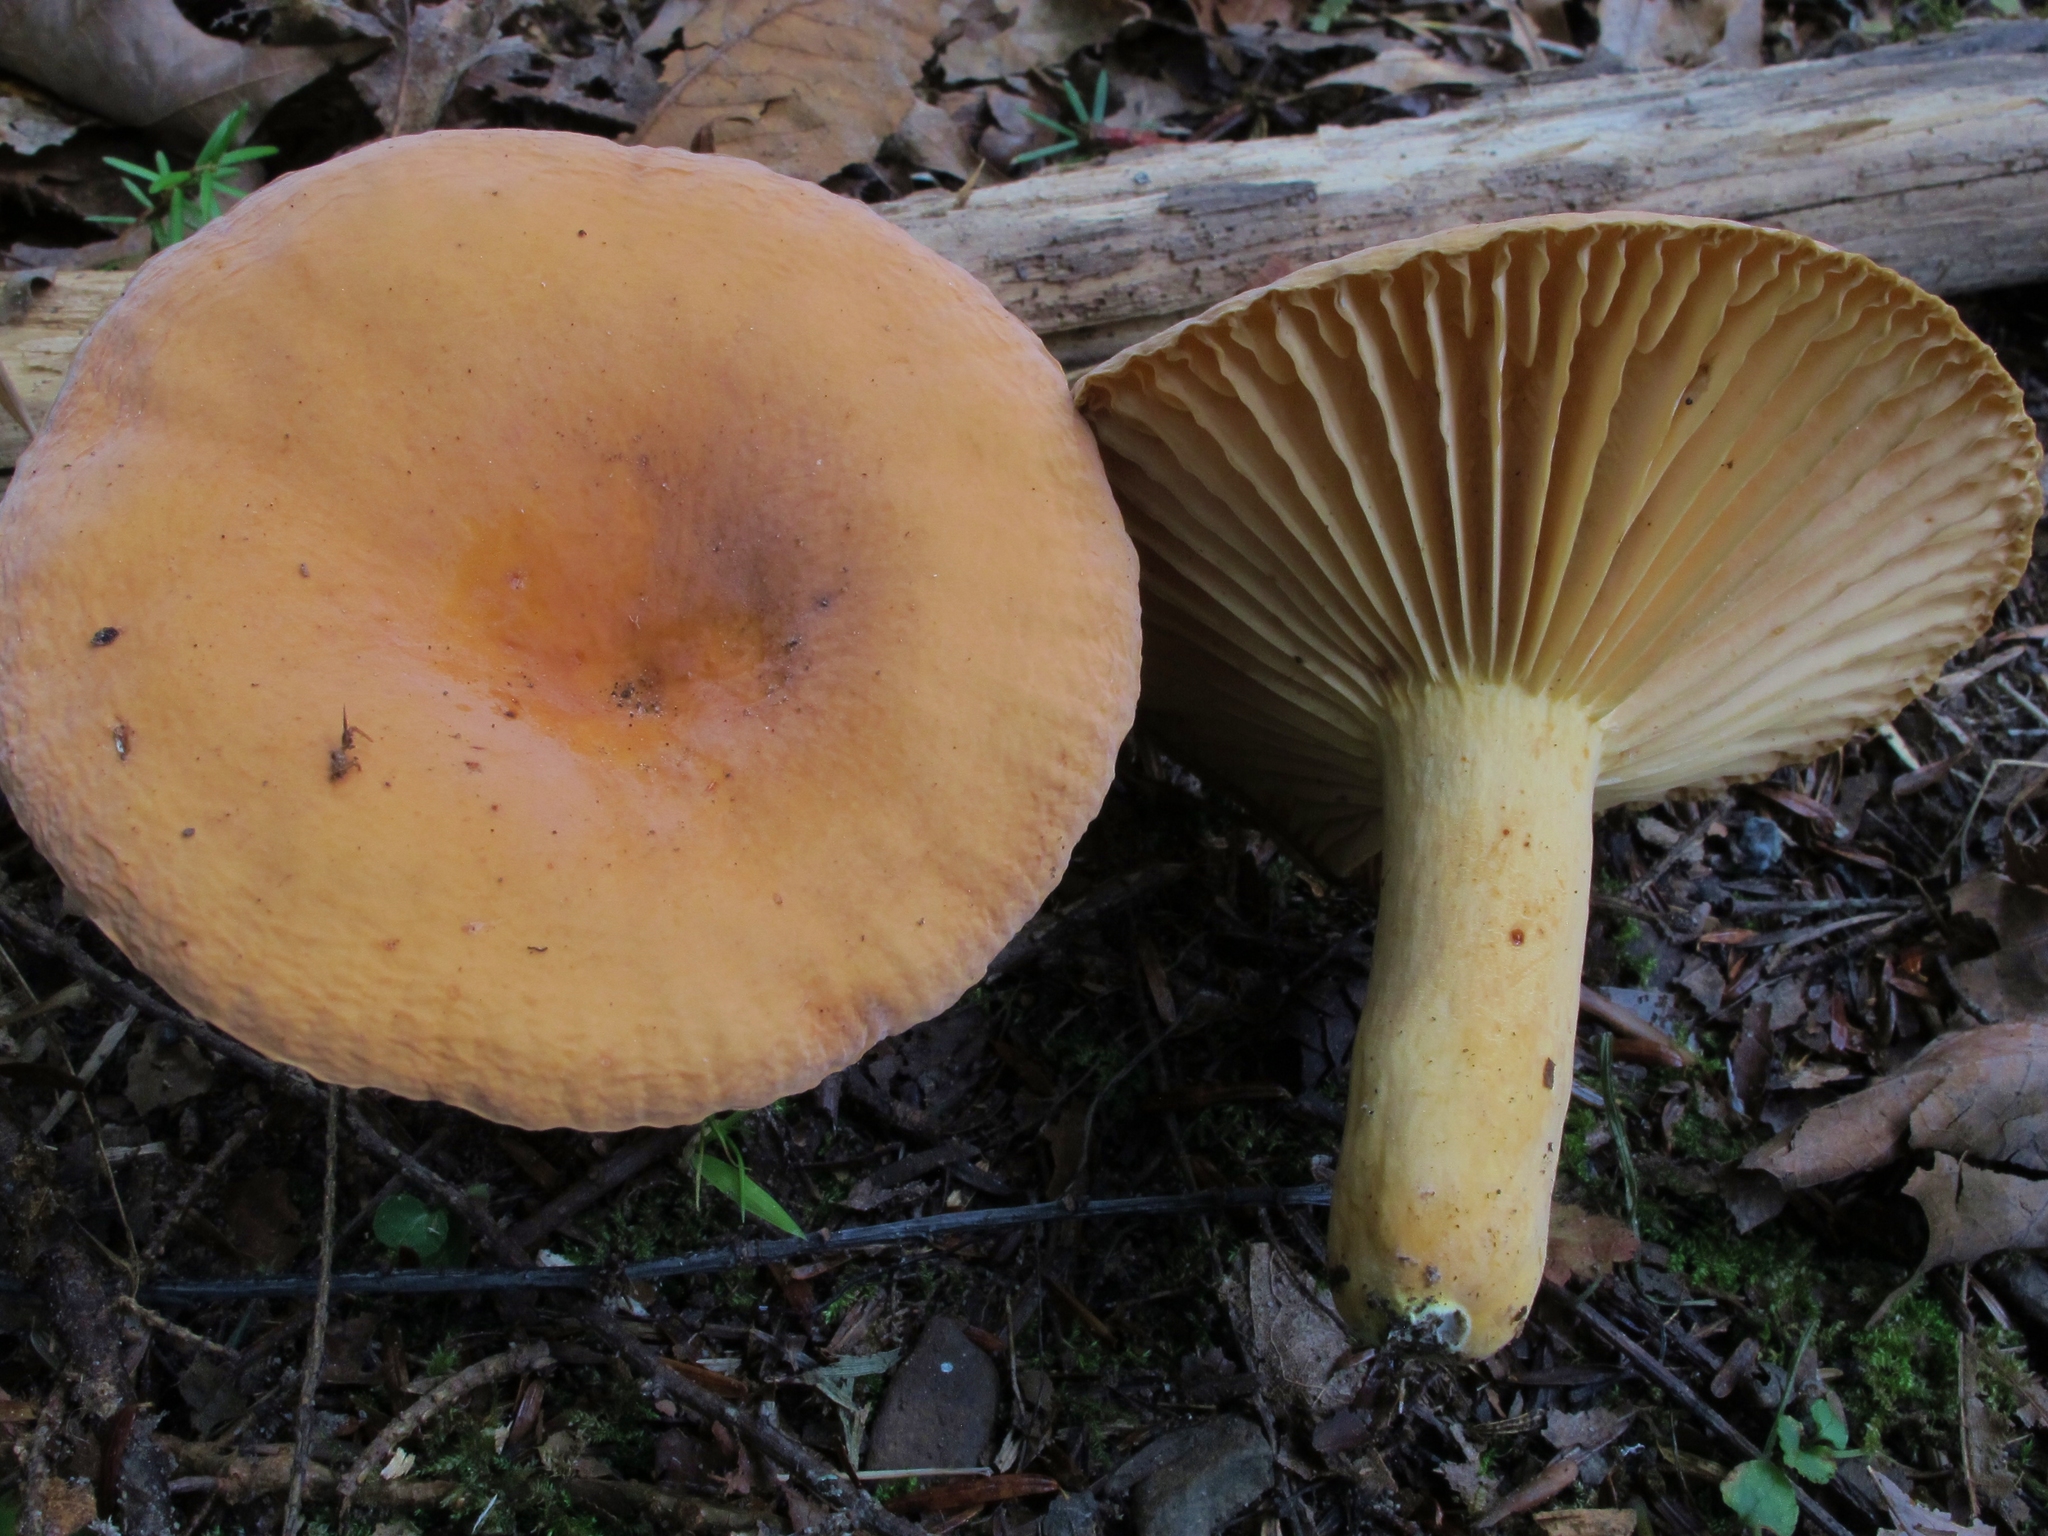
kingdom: Fungi
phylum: Basidiomycota
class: Agaricomycetes
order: Russulales
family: Russulaceae
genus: Lactarius
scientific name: Lactarius hygrophoroides
